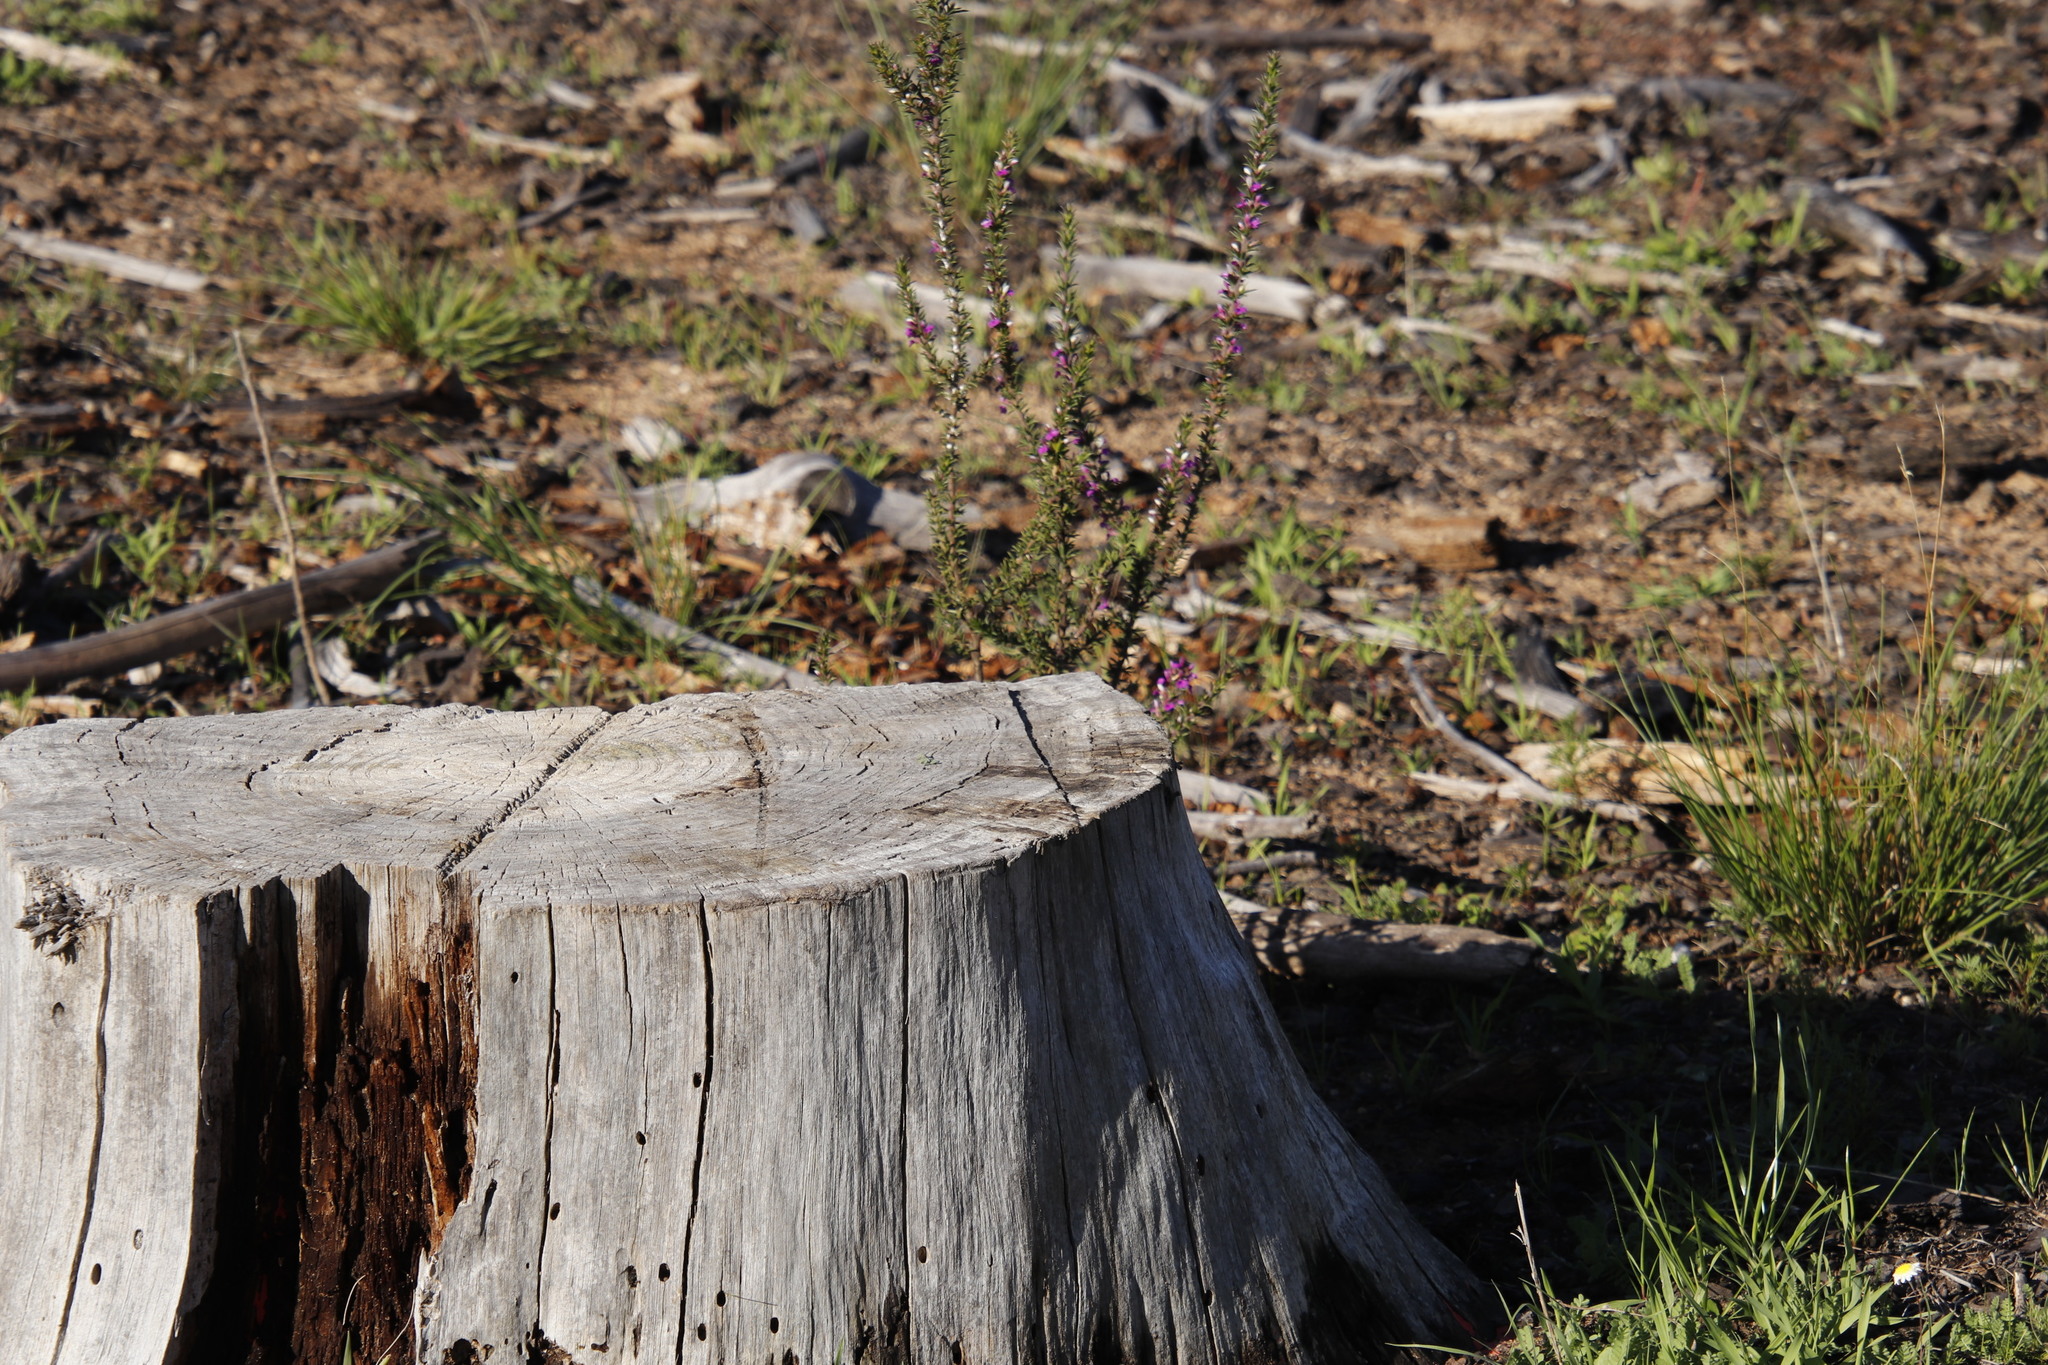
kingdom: Plantae
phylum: Tracheophyta
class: Magnoliopsida
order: Fabales
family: Polygalaceae
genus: Muraltia
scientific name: Muraltia heisteria
